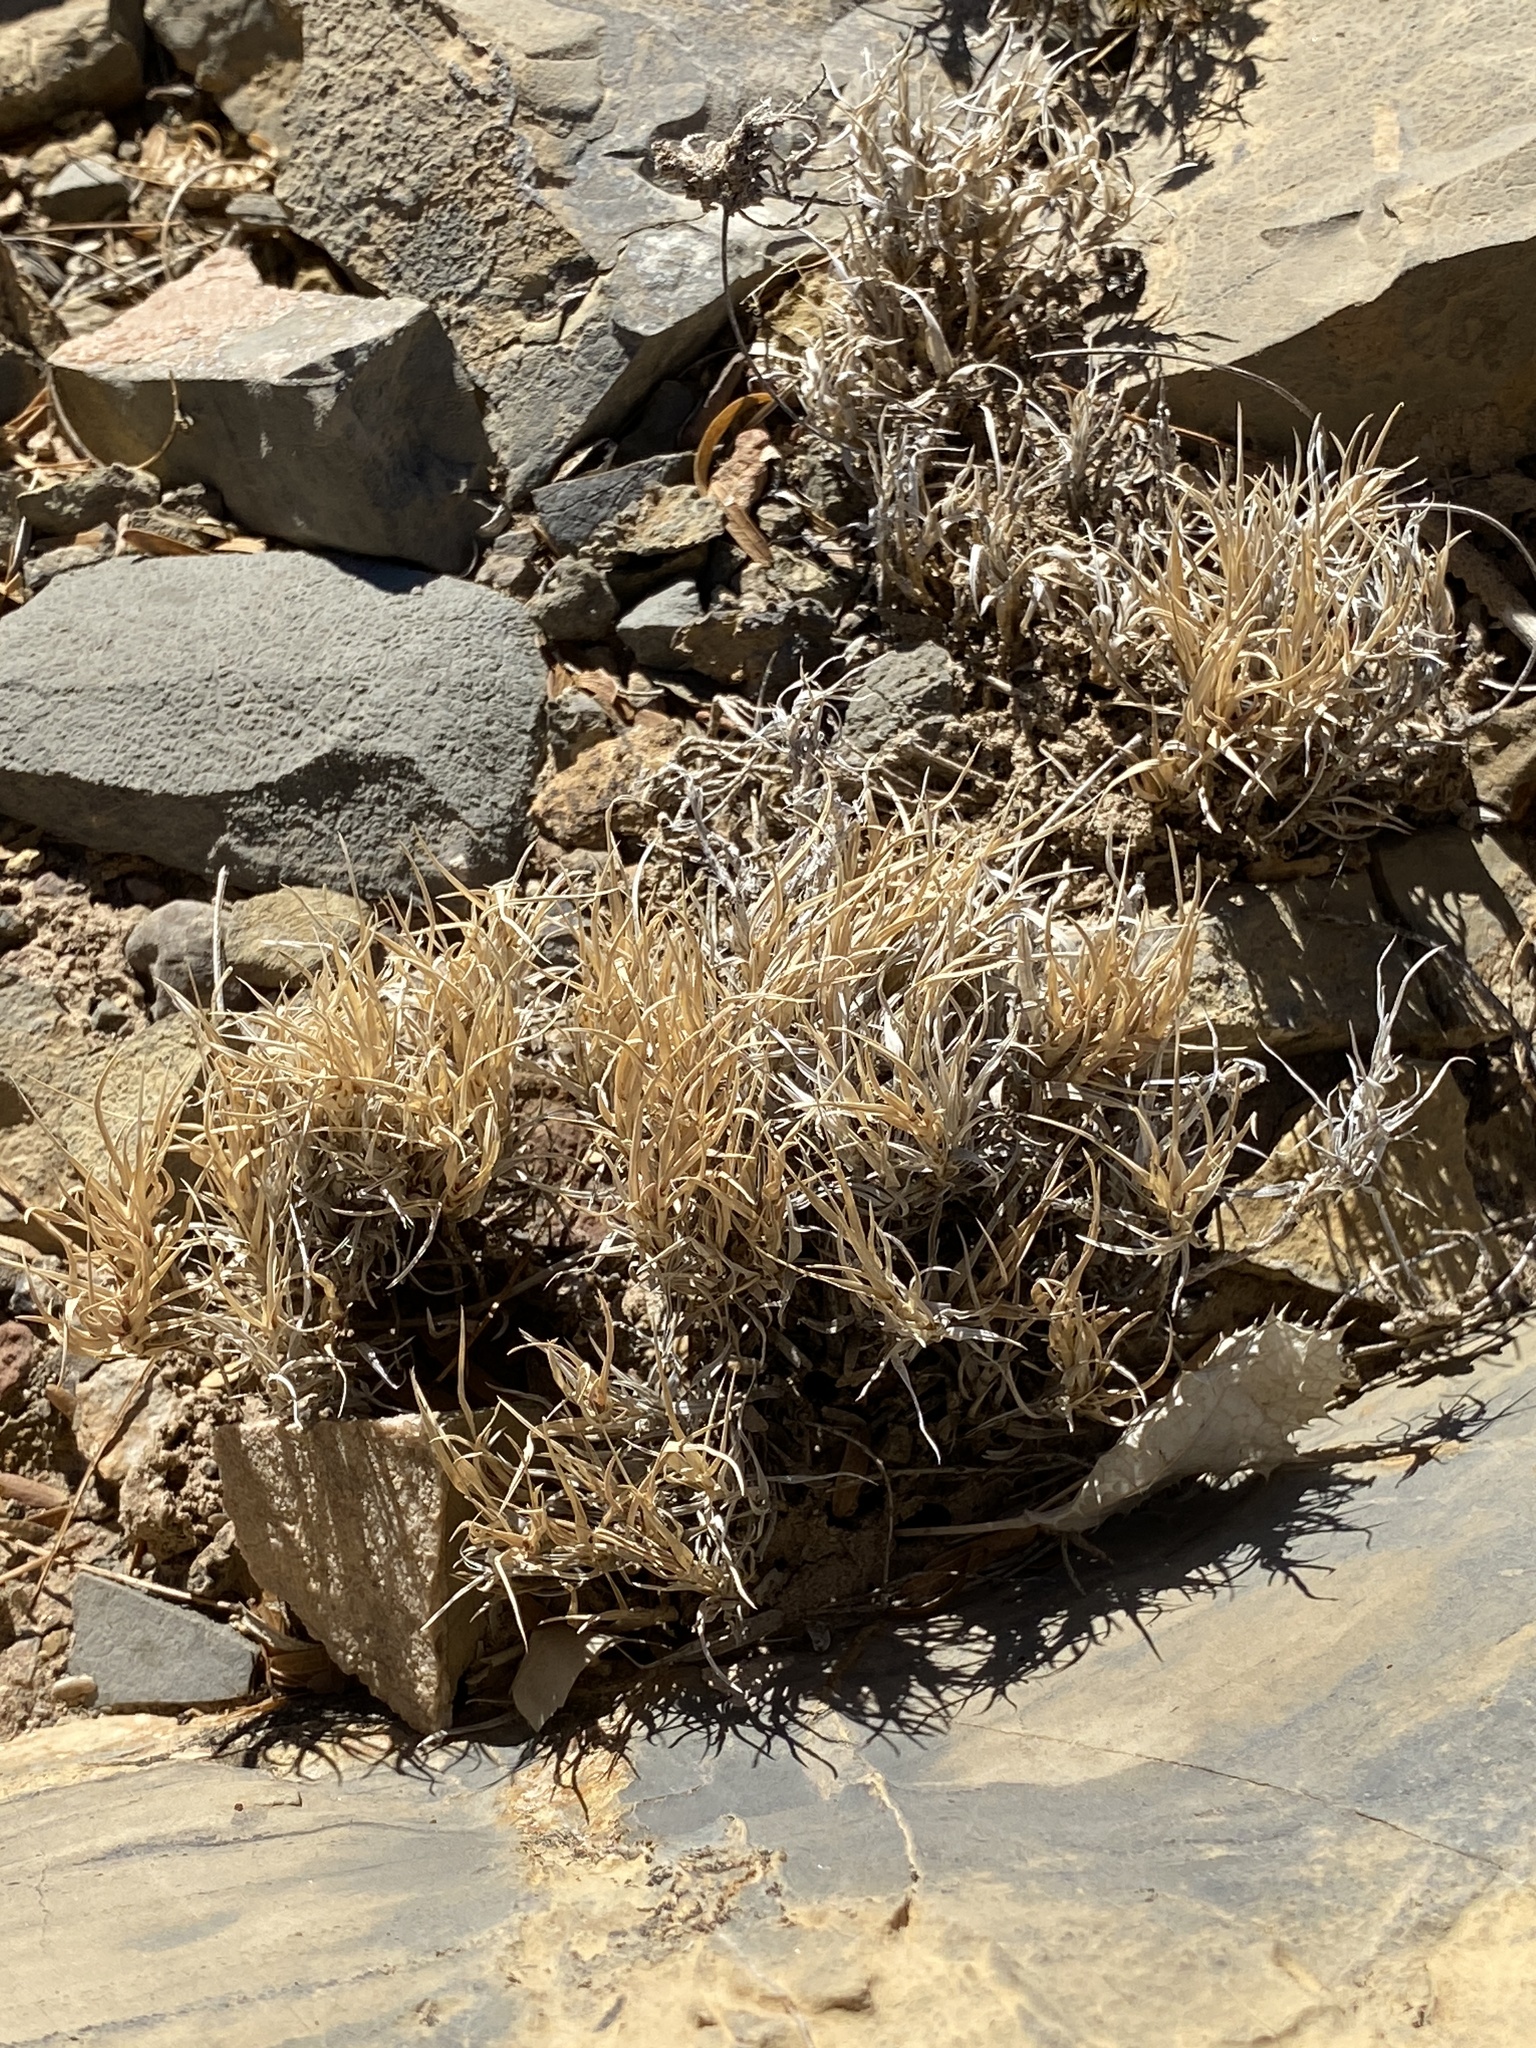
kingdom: Plantae
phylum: Tracheophyta
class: Liliopsida
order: Poales
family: Poaceae
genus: Dasyochloa
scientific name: Dasyochloa pulchella
